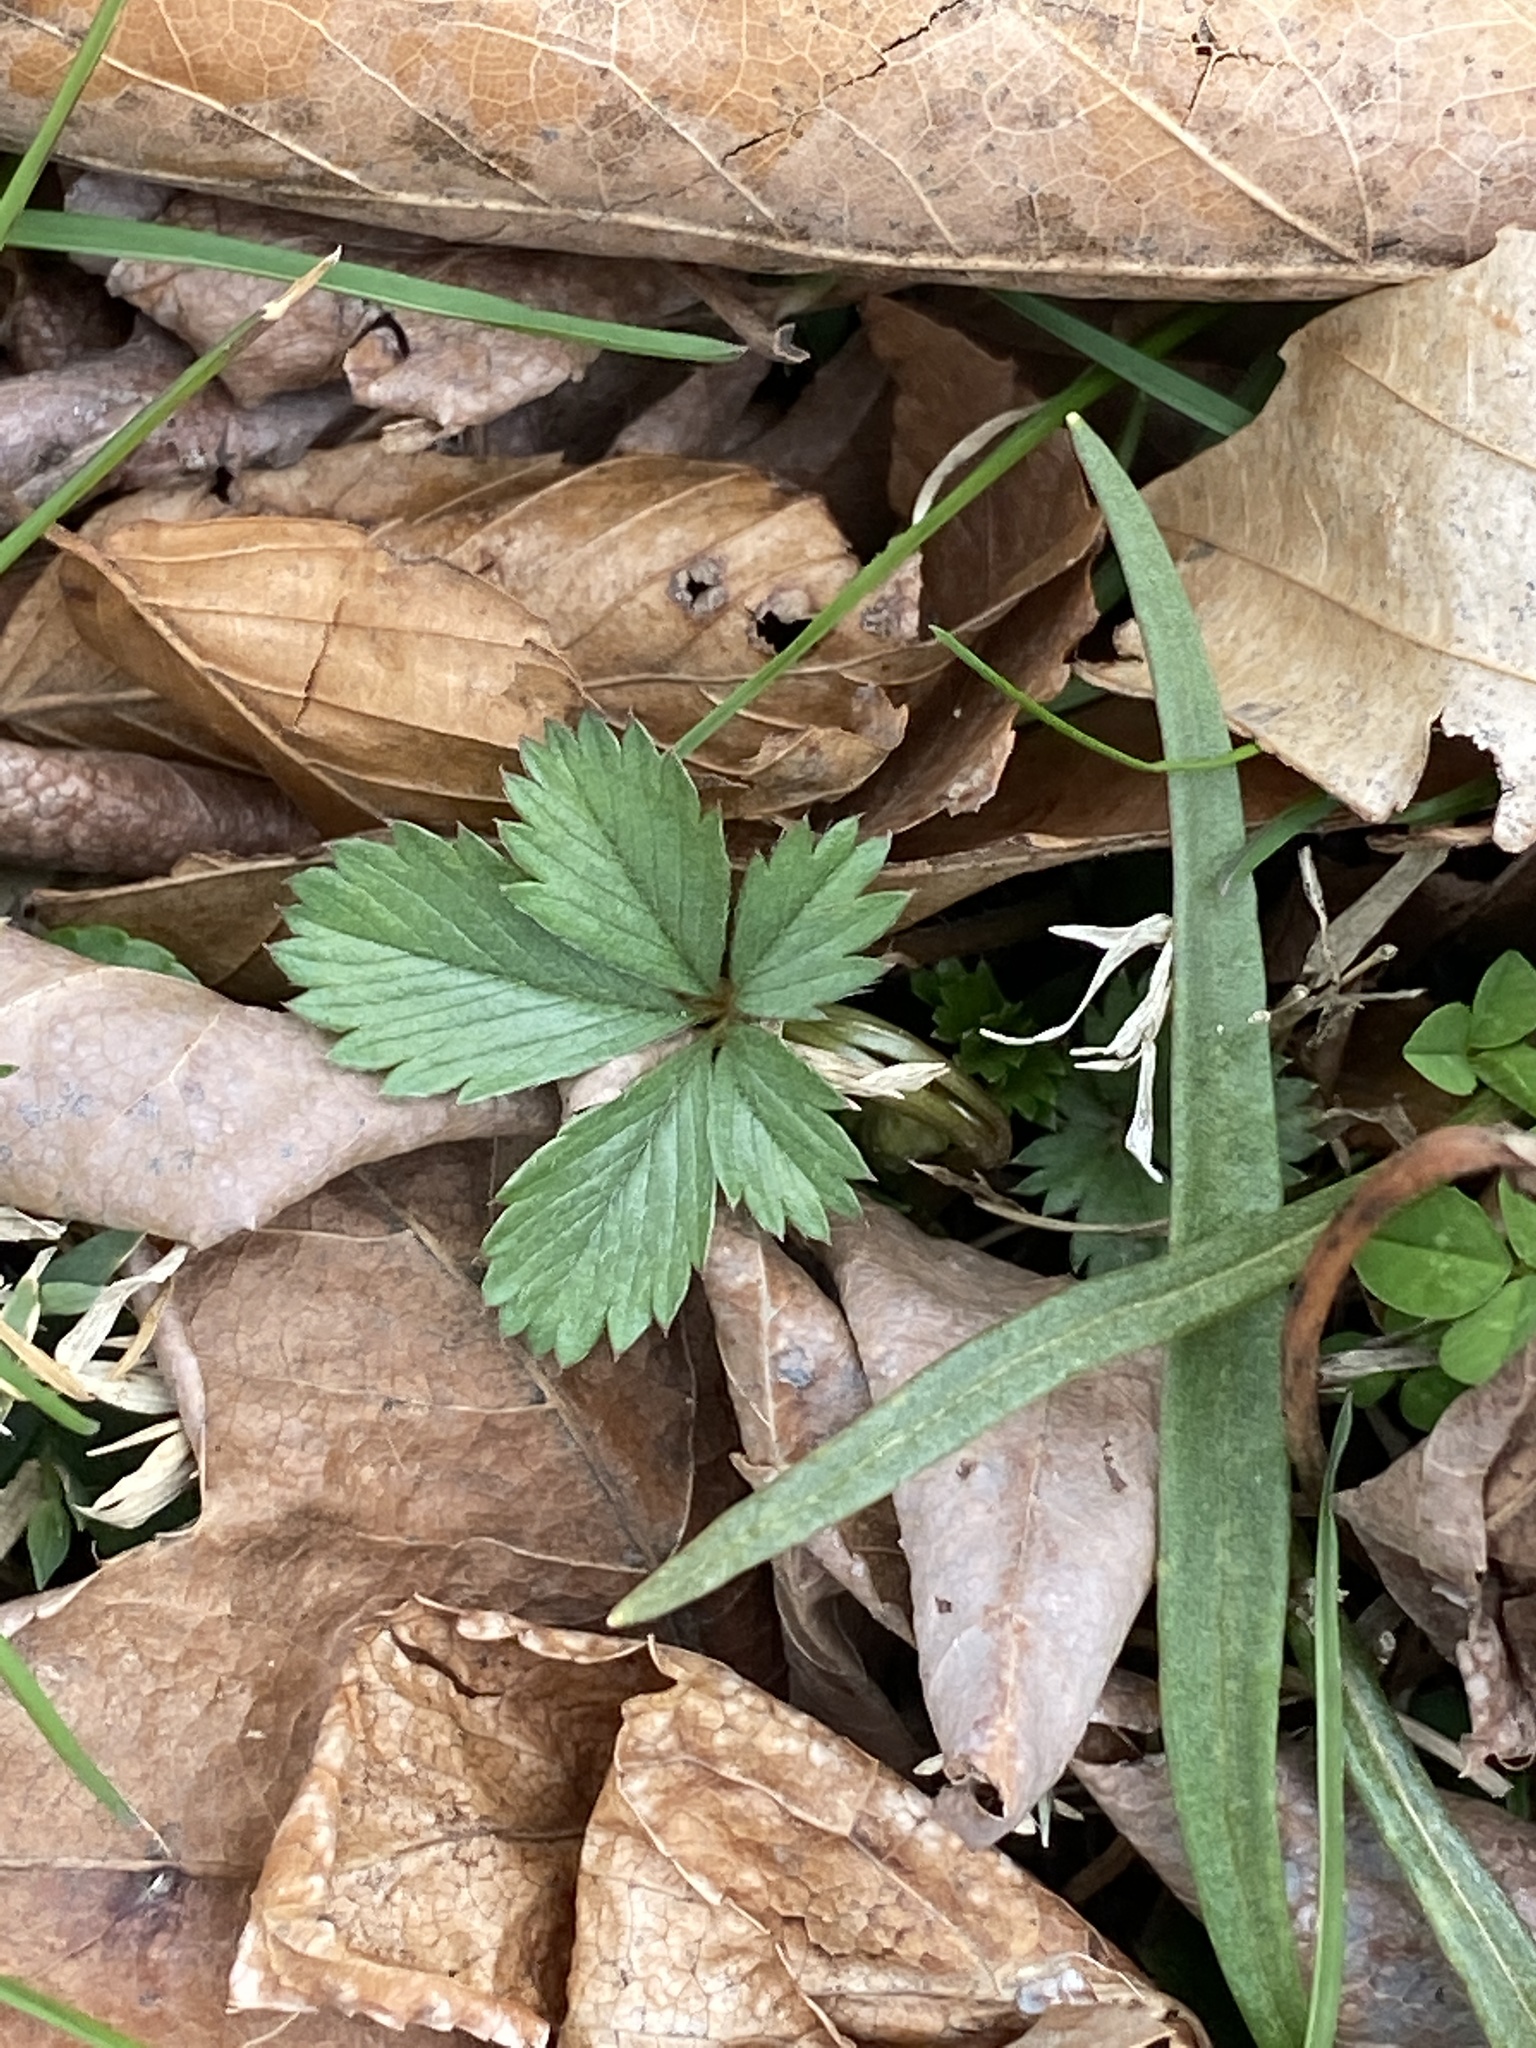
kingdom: Plantae
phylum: Tracheophyta
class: Magnoliopsida
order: Rosales
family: Rosaceae
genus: Potentilla
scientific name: Potentilla canadensis
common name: Canada cinquefoil
